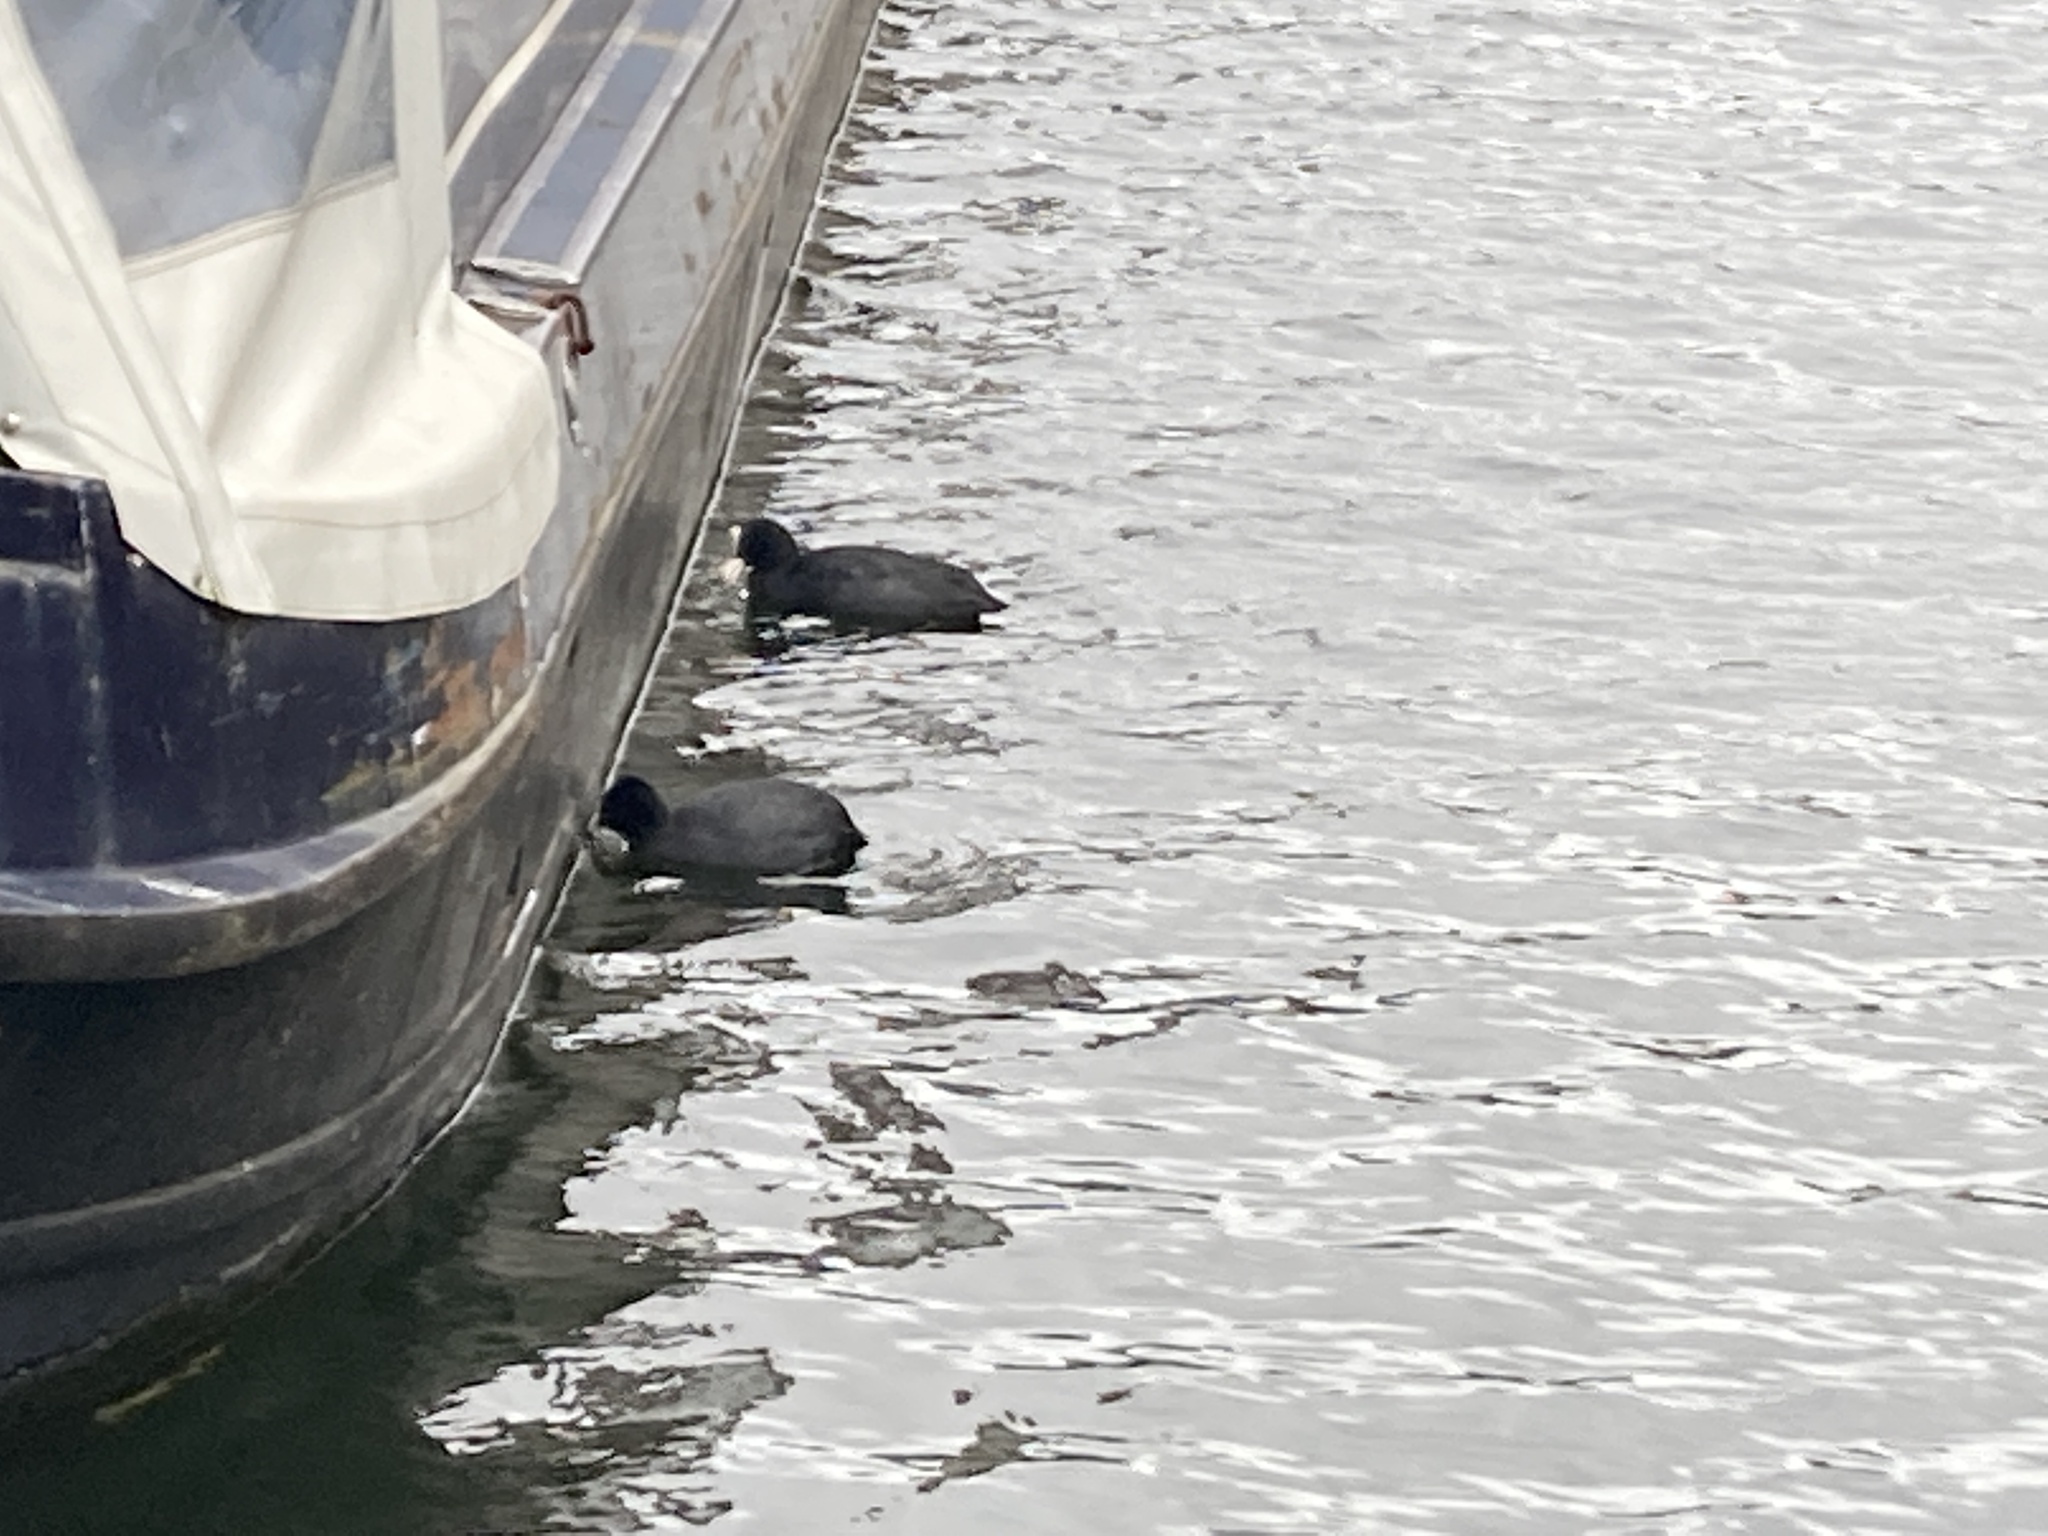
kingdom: Animalia
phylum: Chordata
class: Aves
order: Gruiformes
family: Rallidae
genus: Fulica
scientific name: Fulica atra
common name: Eurasian coot
